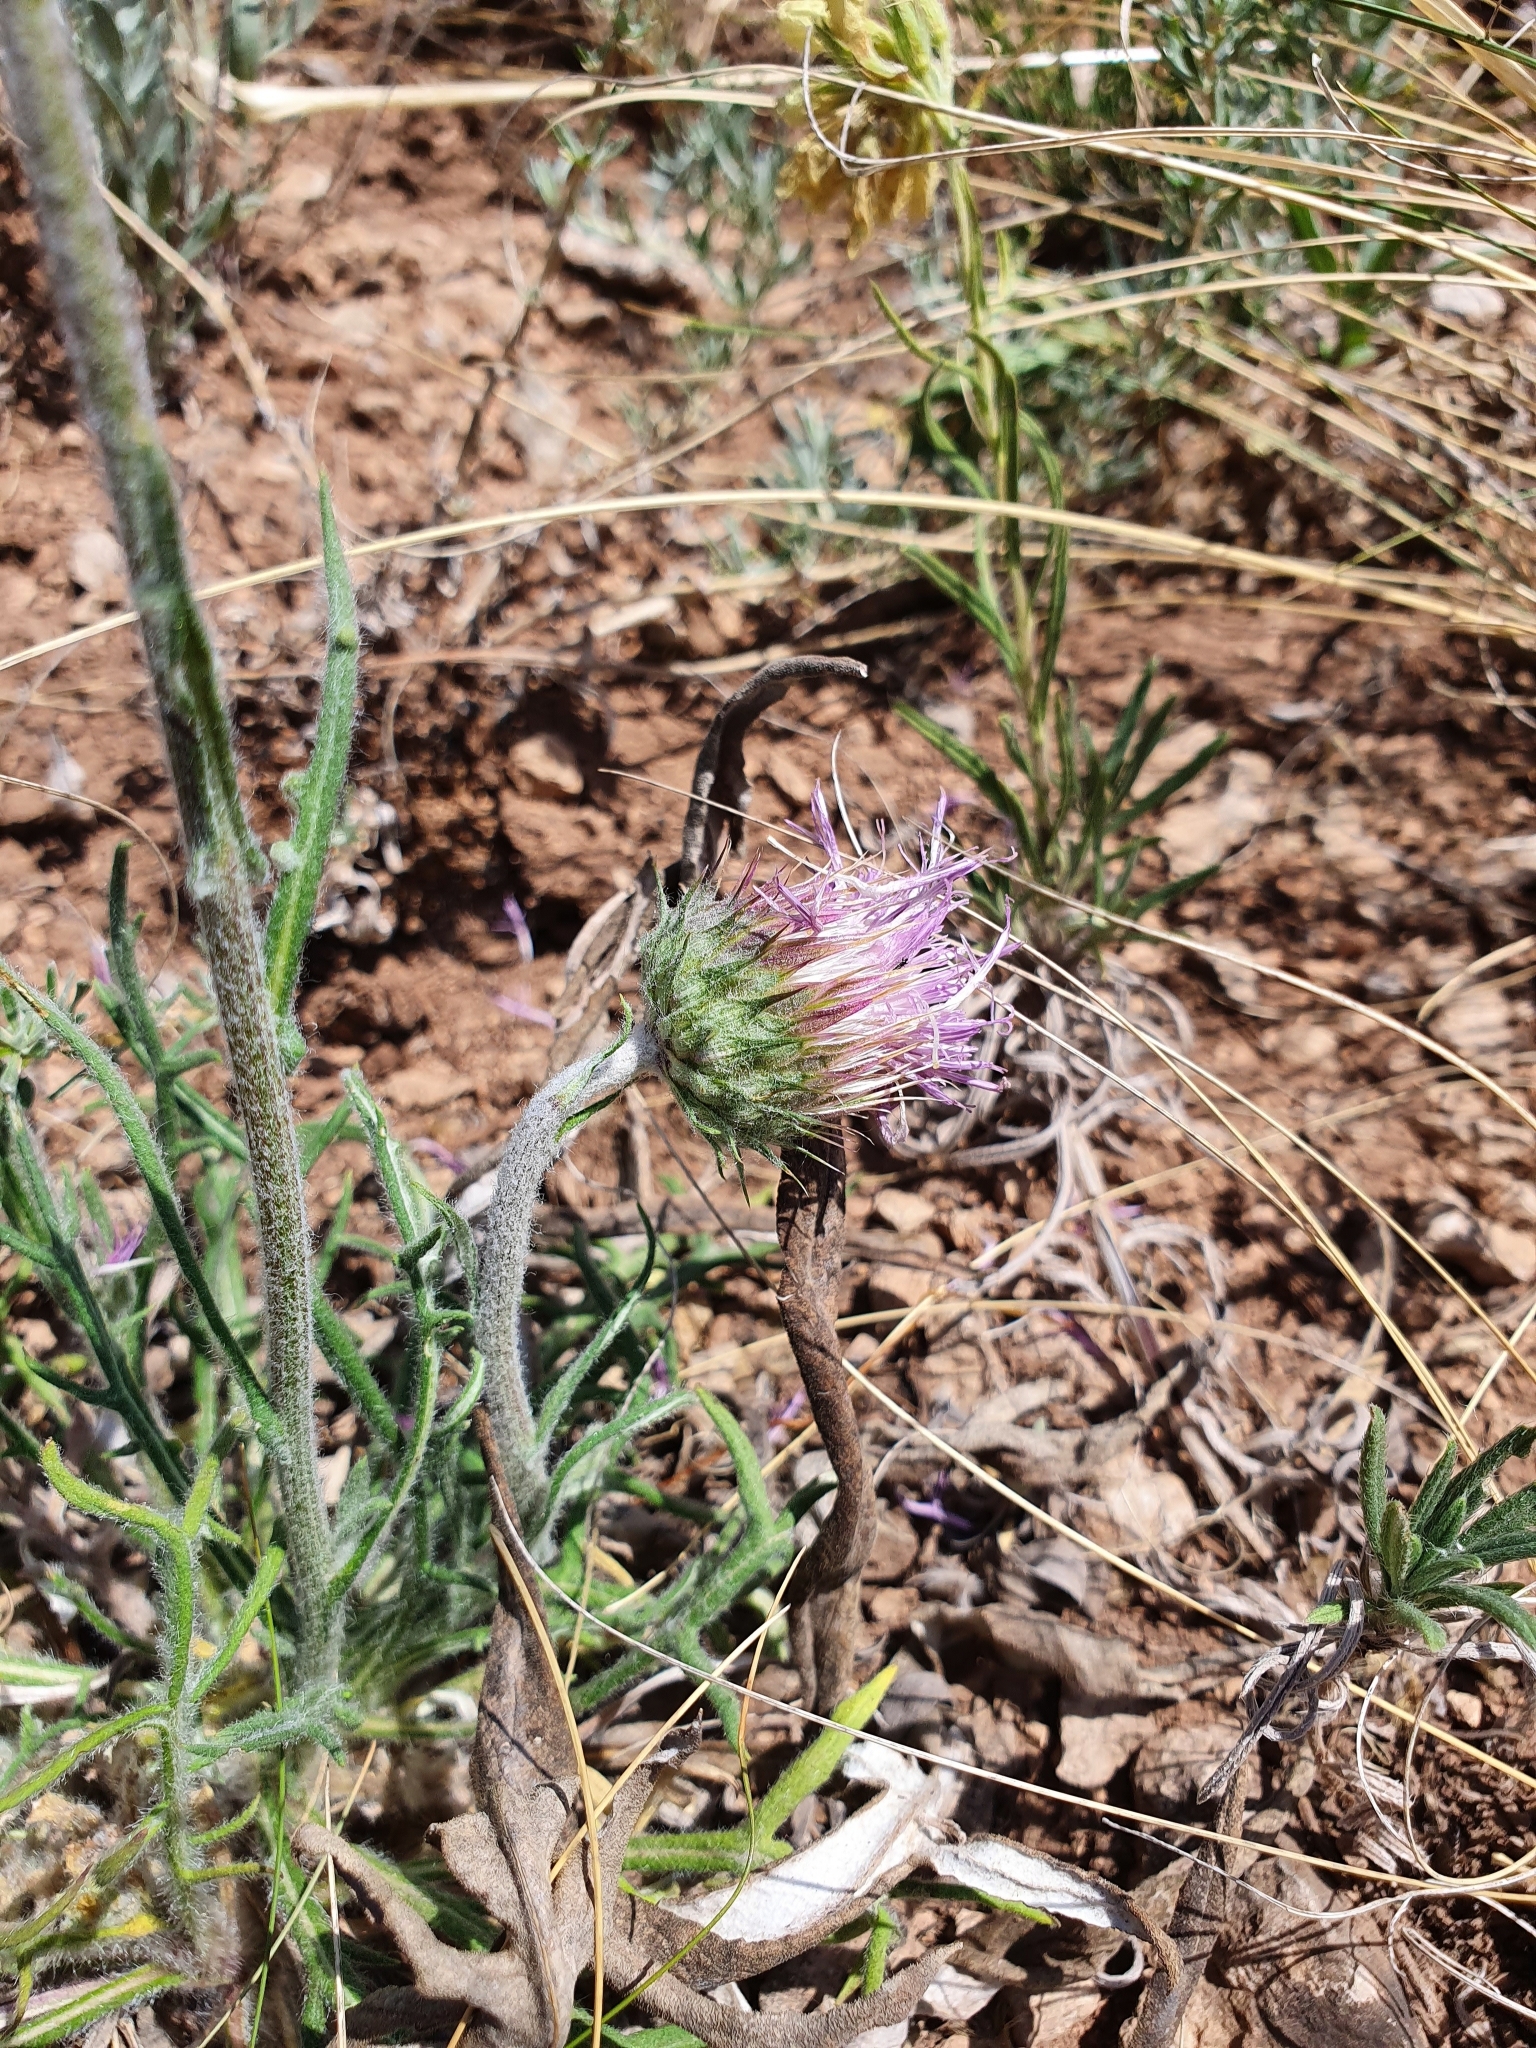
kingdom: Plantae
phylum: Tracheophyta
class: Magnoliopsida
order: Asterales
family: Asteraceae
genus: Jurinea
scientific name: Jurinea ledebourii
